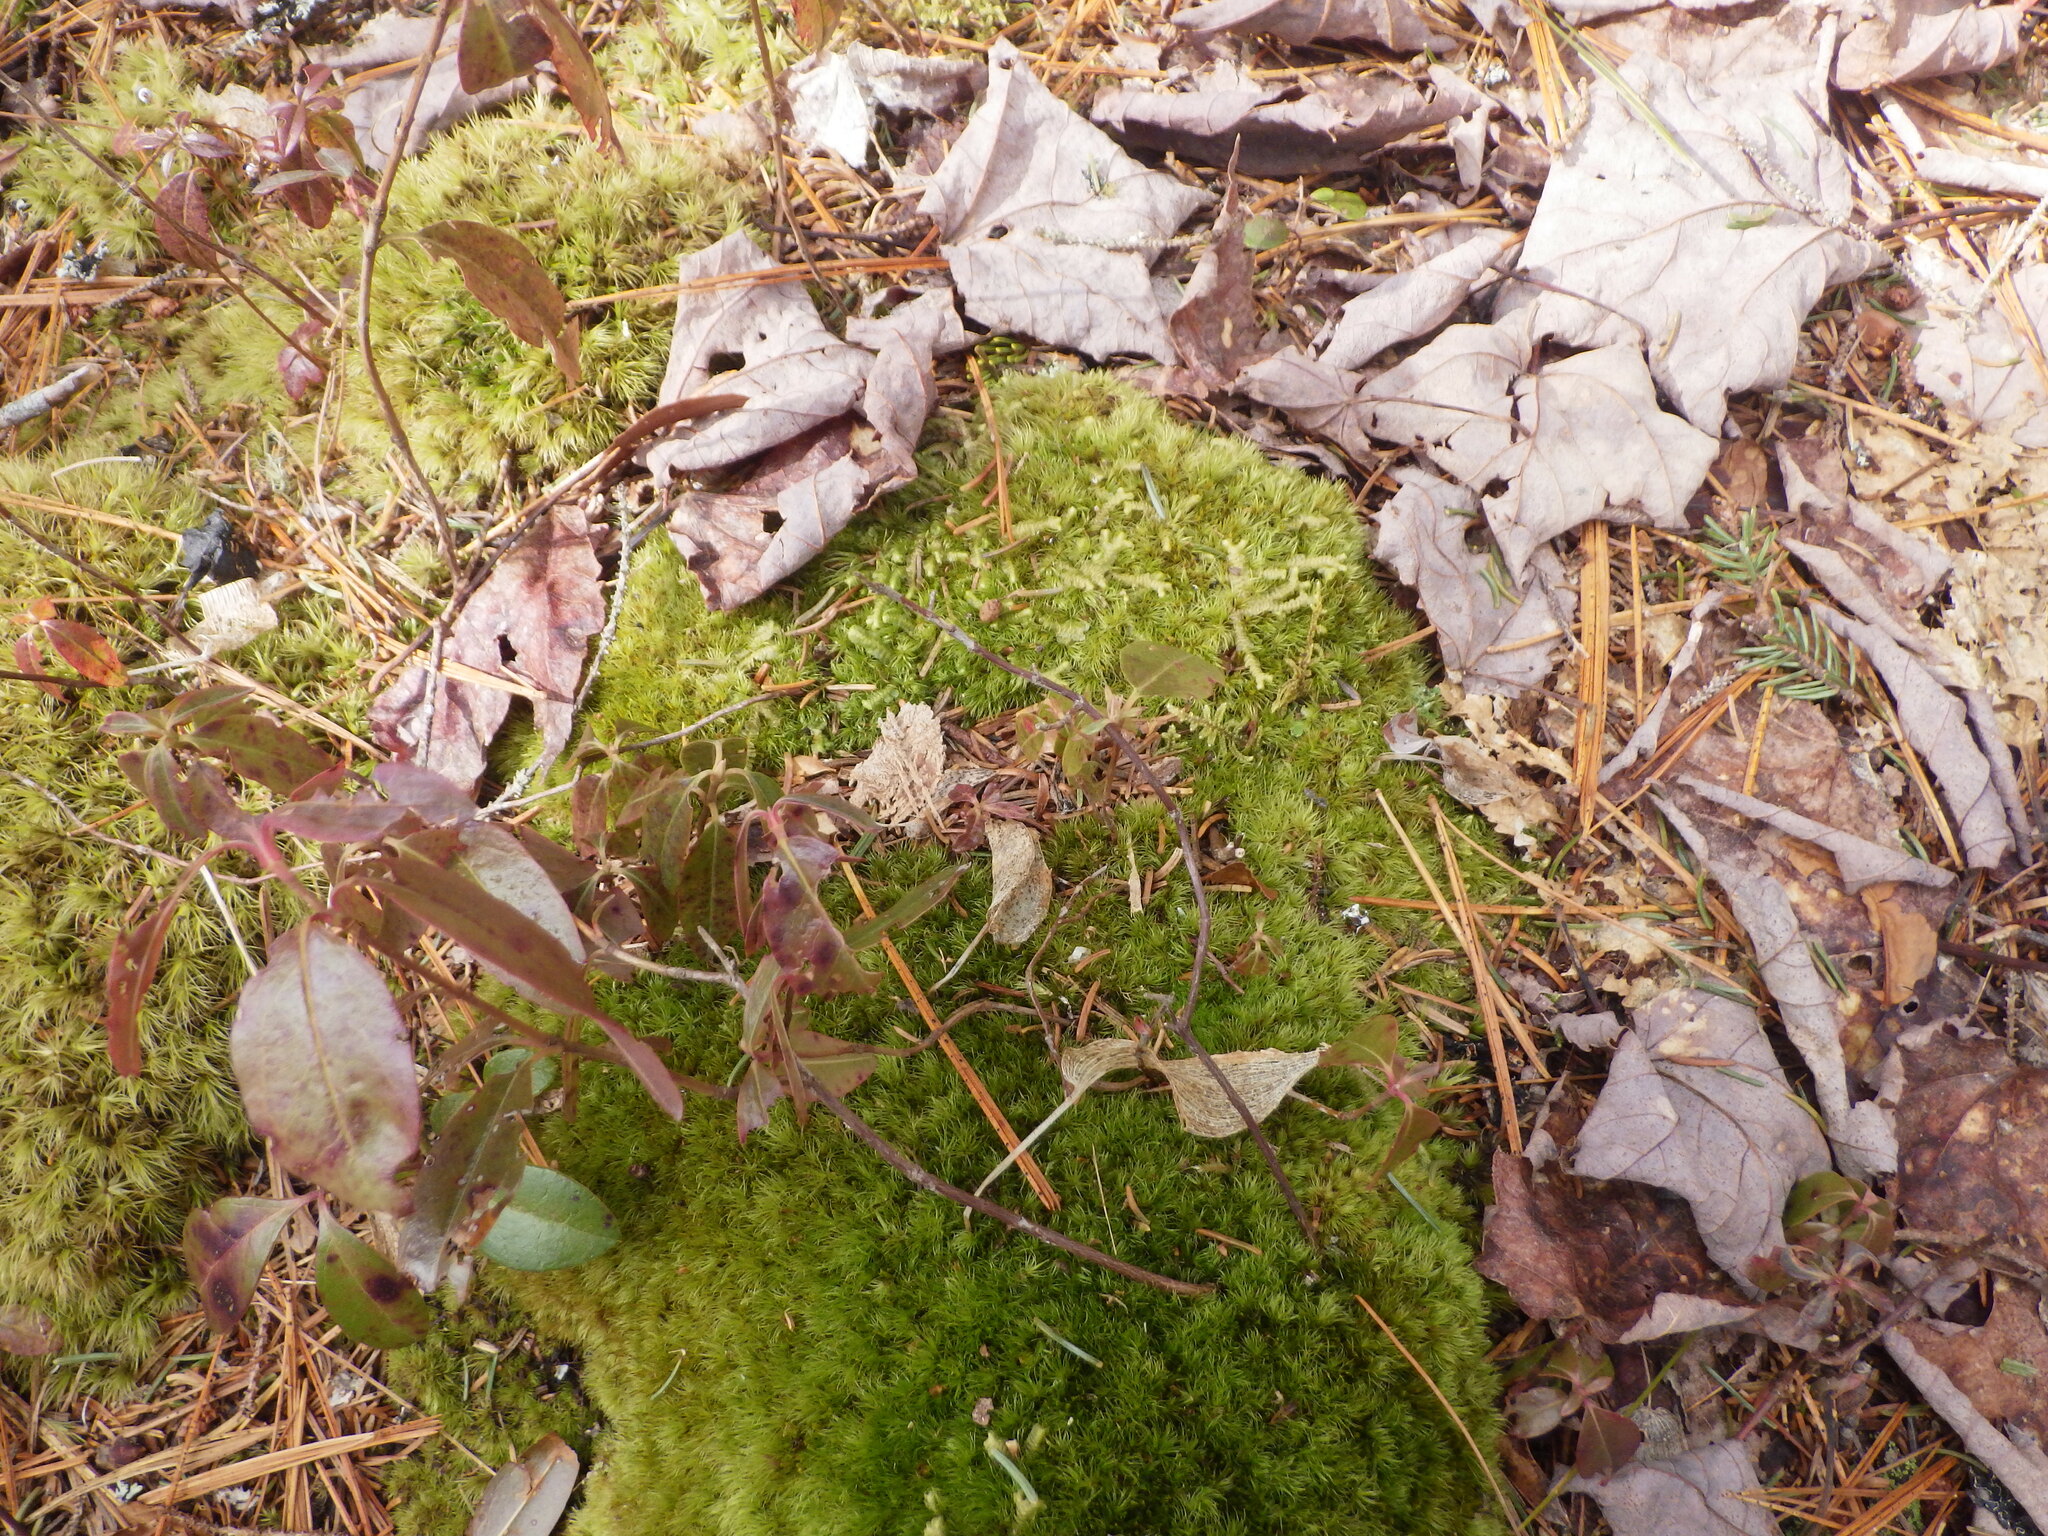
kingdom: Plantae
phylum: Marchantiophyta
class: Jungermanniopsida
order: Jungermanniales
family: Lepidoziaceae
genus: Bazzania
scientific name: Bazzania trilobata
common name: Three-lobed whipwort
